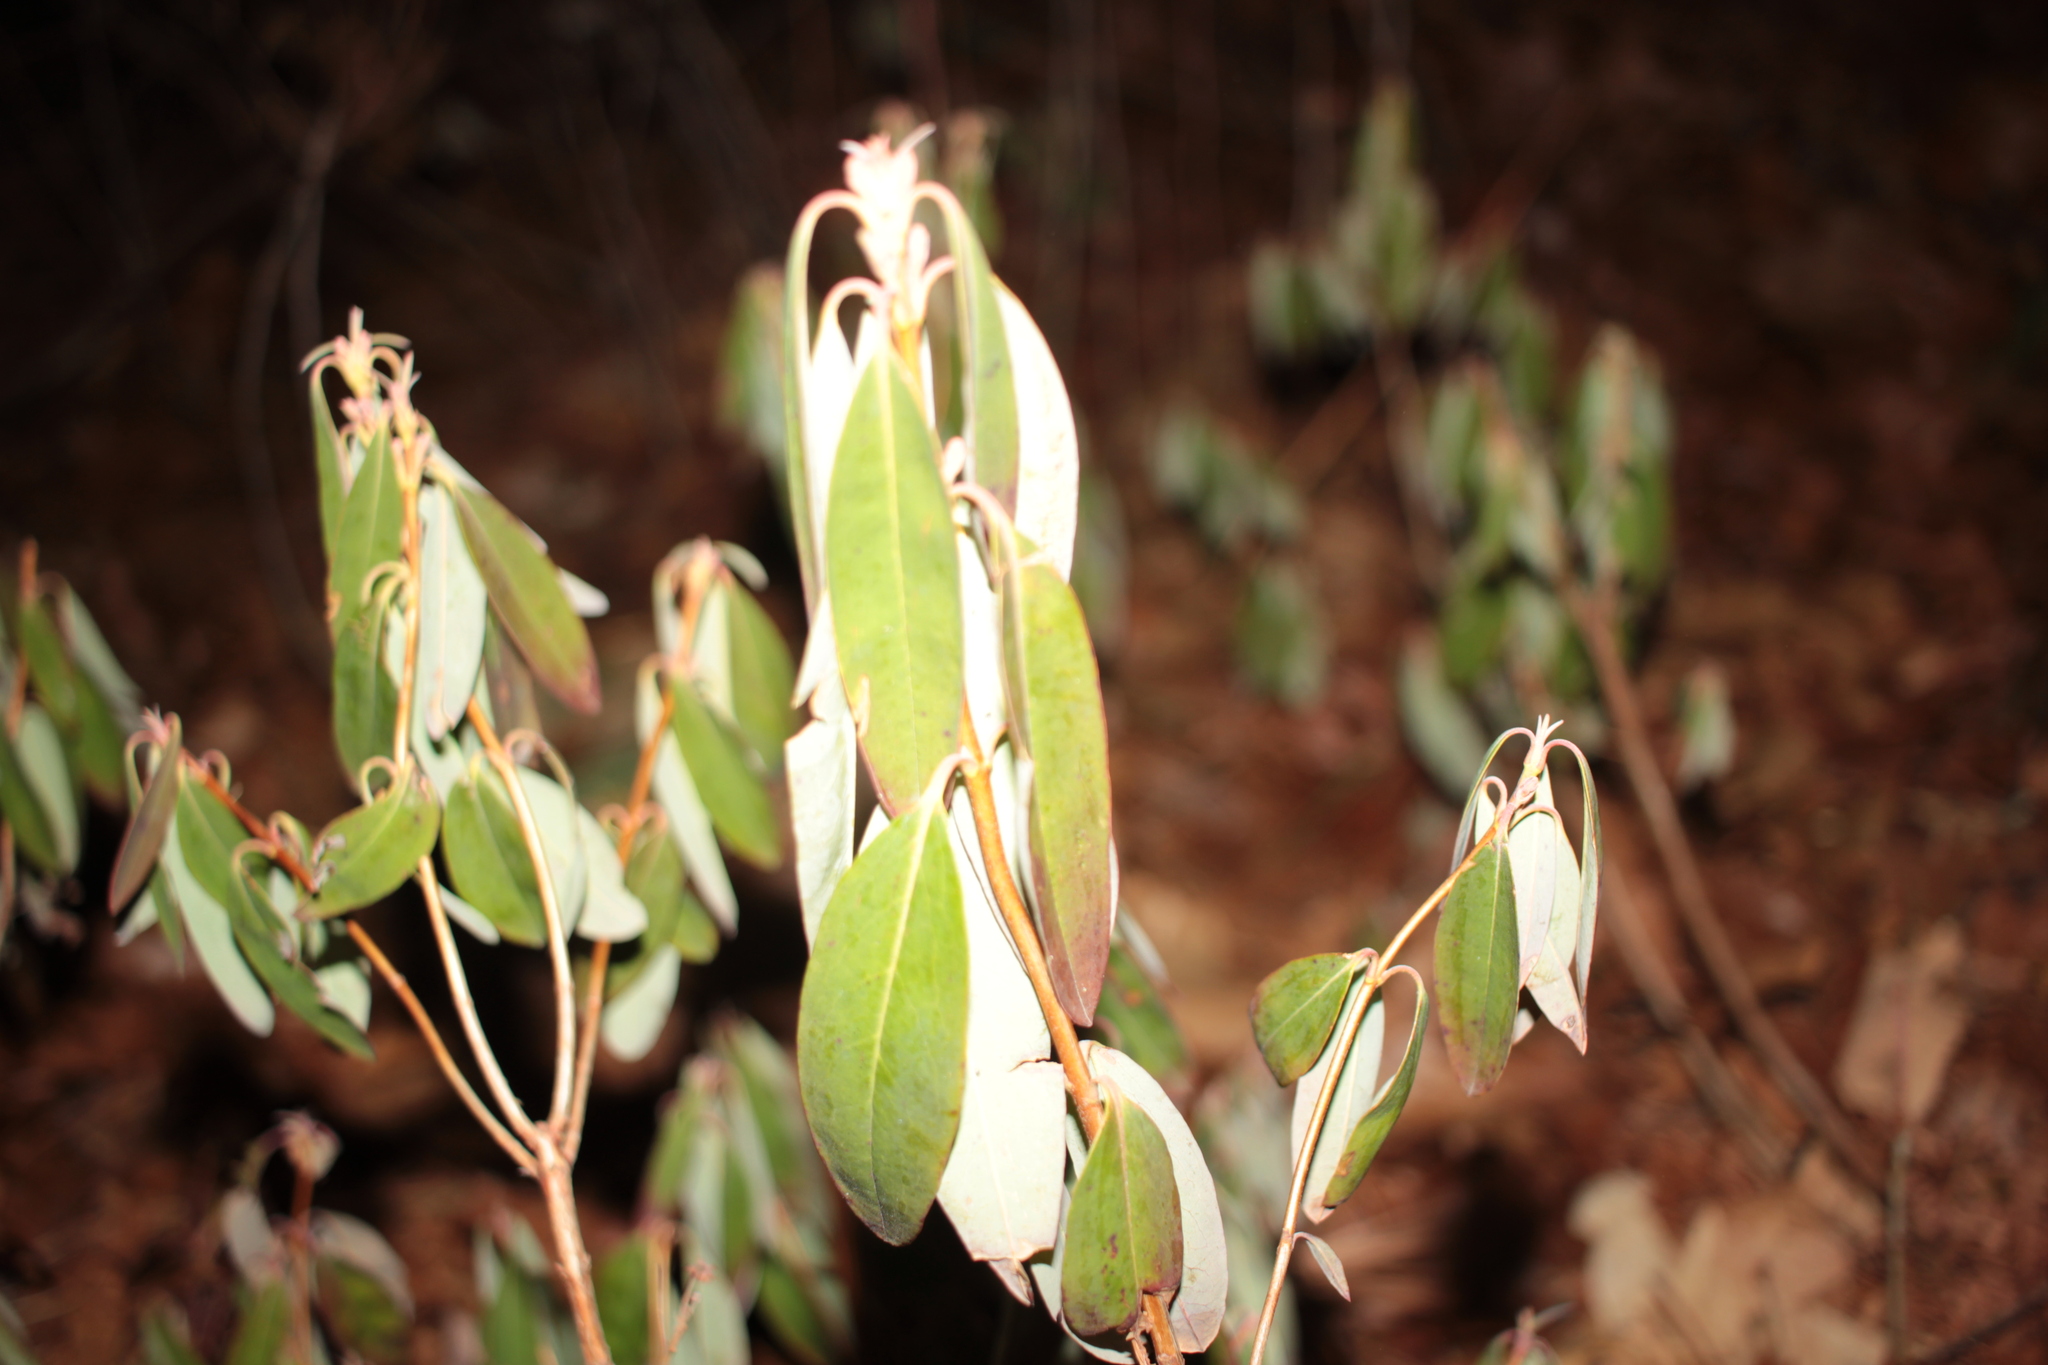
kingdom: Plantae
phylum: Tracheophyta
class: Magnoliopsida
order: Ericales
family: Ericaceae
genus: Kalmia
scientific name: Kalmia angustifolia
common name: Sheep-laurel
